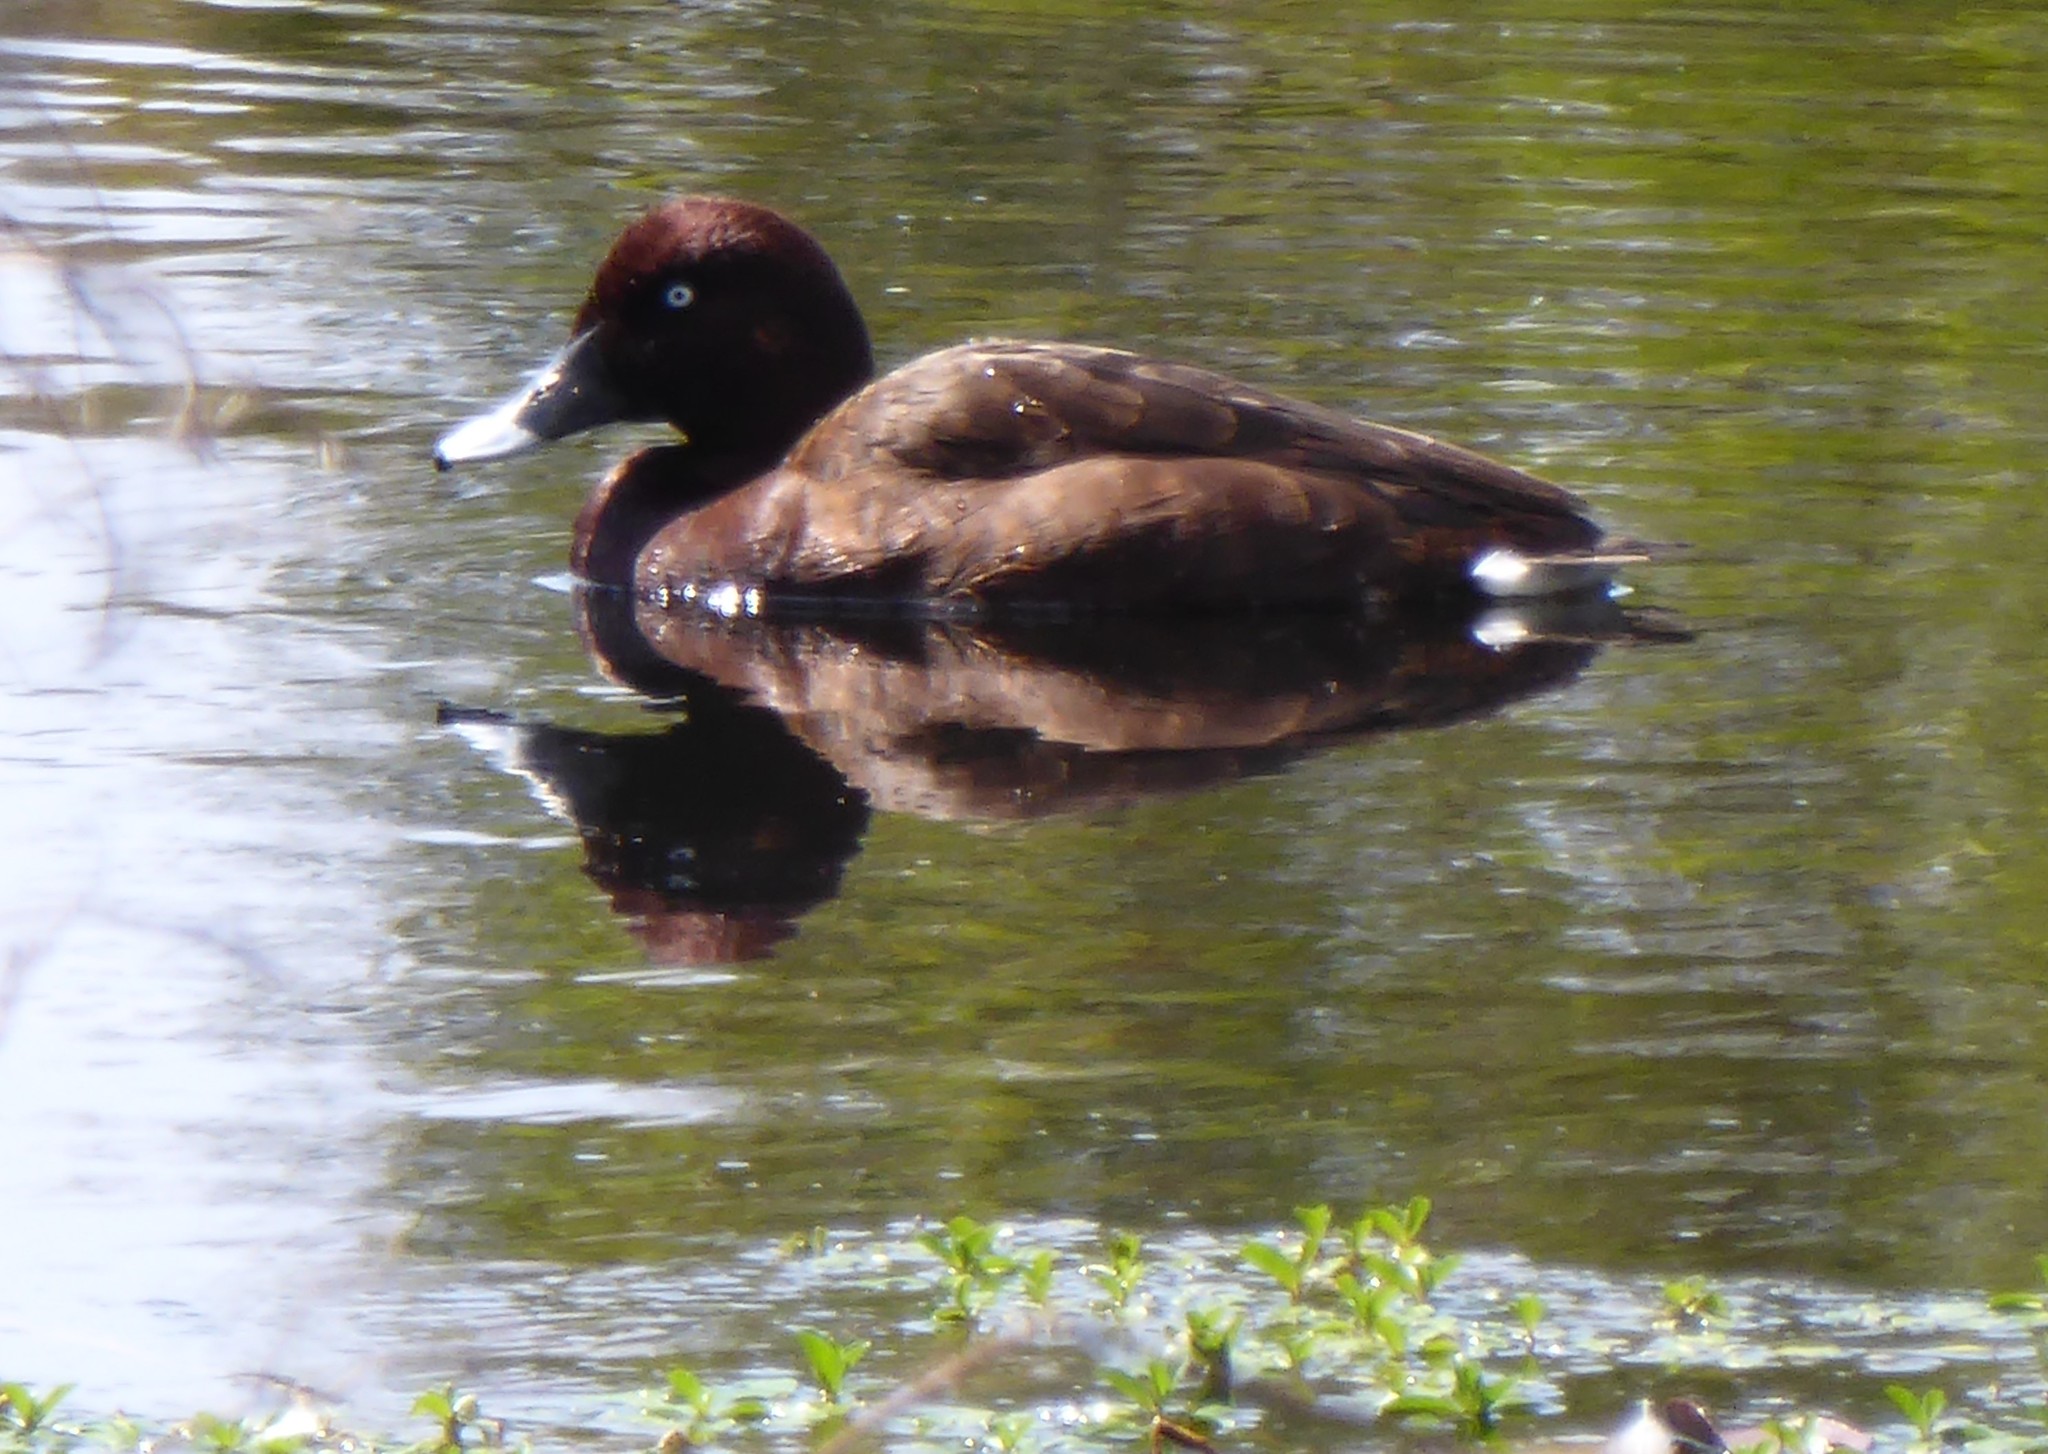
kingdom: Animalia
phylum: Chordata
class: Aves
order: Anseriformes
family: Anatidae
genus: Aythya
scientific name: Aythya australis
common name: Hardhead
